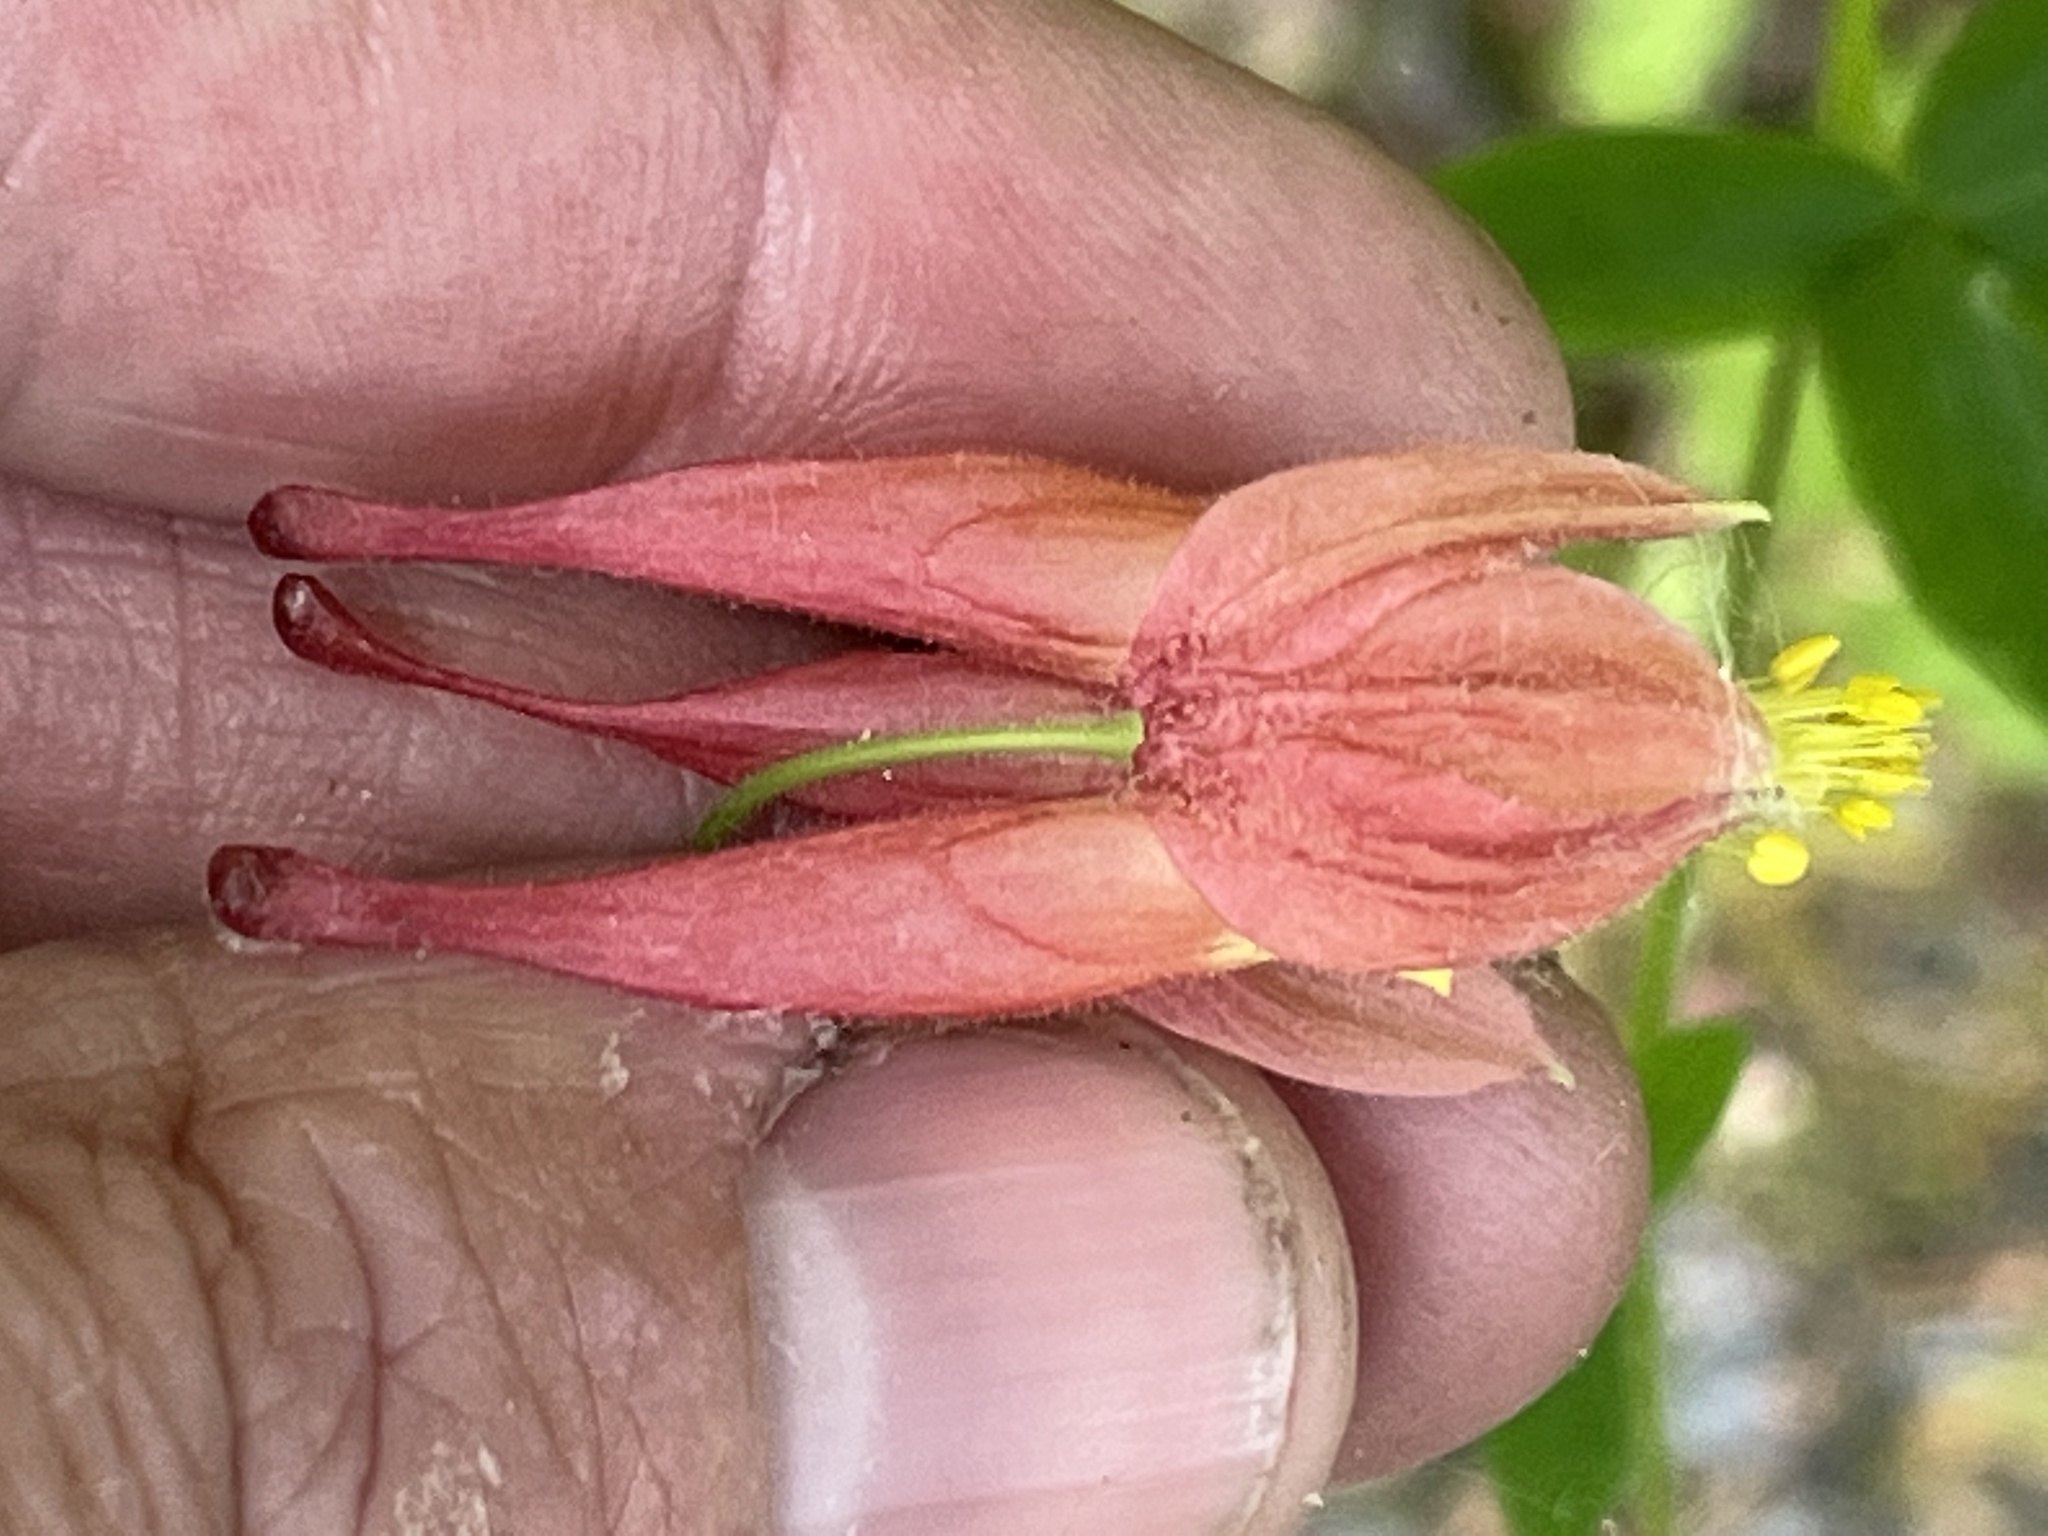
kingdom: Plantae
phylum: Tracheophyta
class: Magnoliopsida
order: Ranunculales
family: Ranunculaceae
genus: Aquilegia
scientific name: Aquilegia canadensis
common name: American columbine
